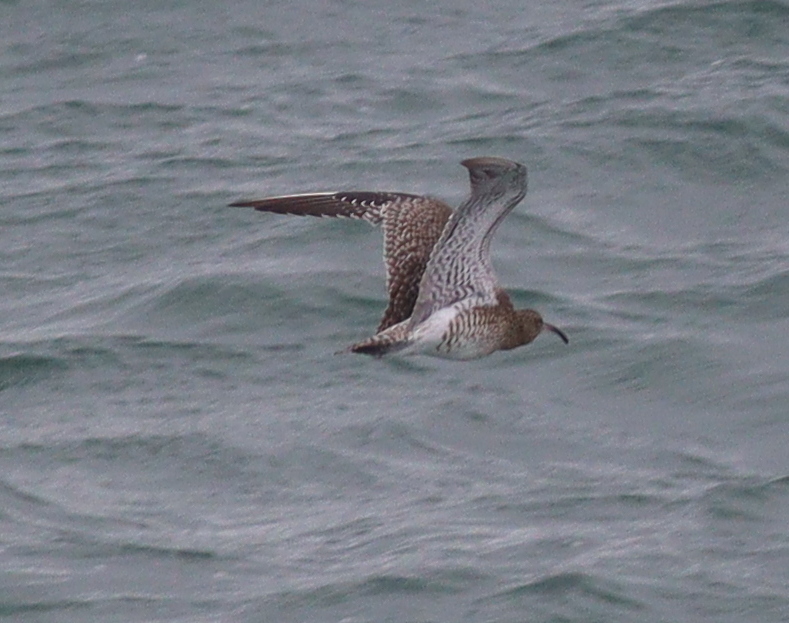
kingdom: Animalia
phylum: Chordata
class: Aves
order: Charadriiformes
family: Scolopacidae
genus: Numenius
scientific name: Numenius arquata
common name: Eurasian curlew
